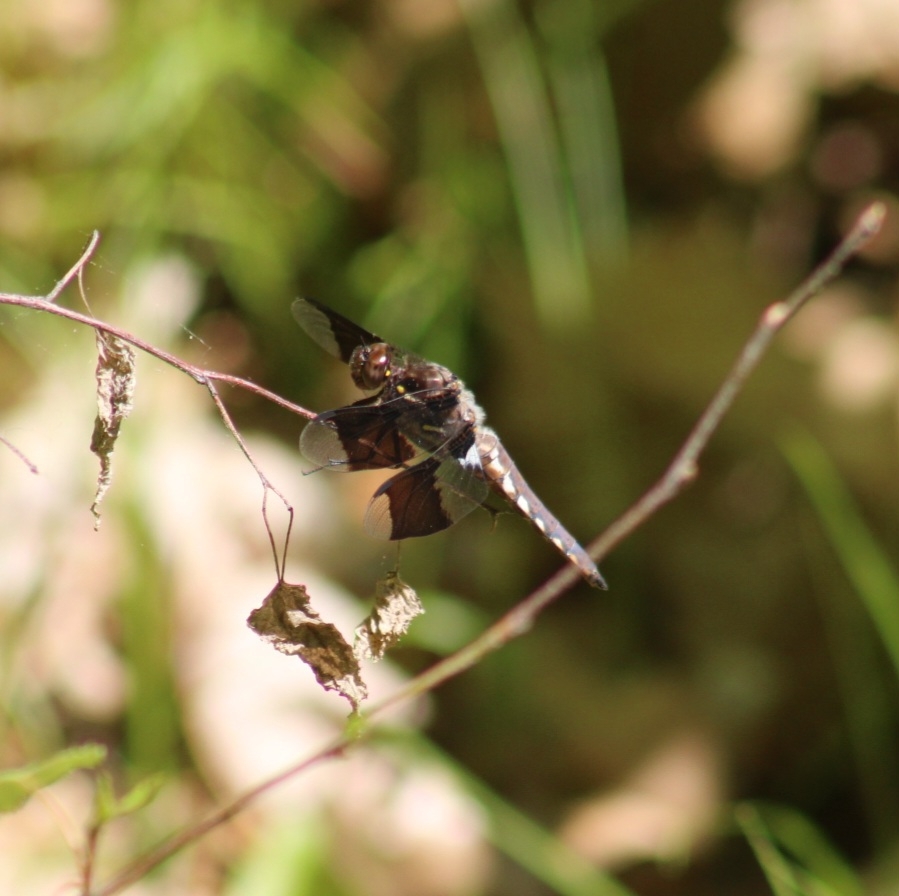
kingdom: Animalia
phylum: Arthropoda
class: Insecta
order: Odonata
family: Libellulidae
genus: Plathemis
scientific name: Plathemis lydia
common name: Common whitetail
